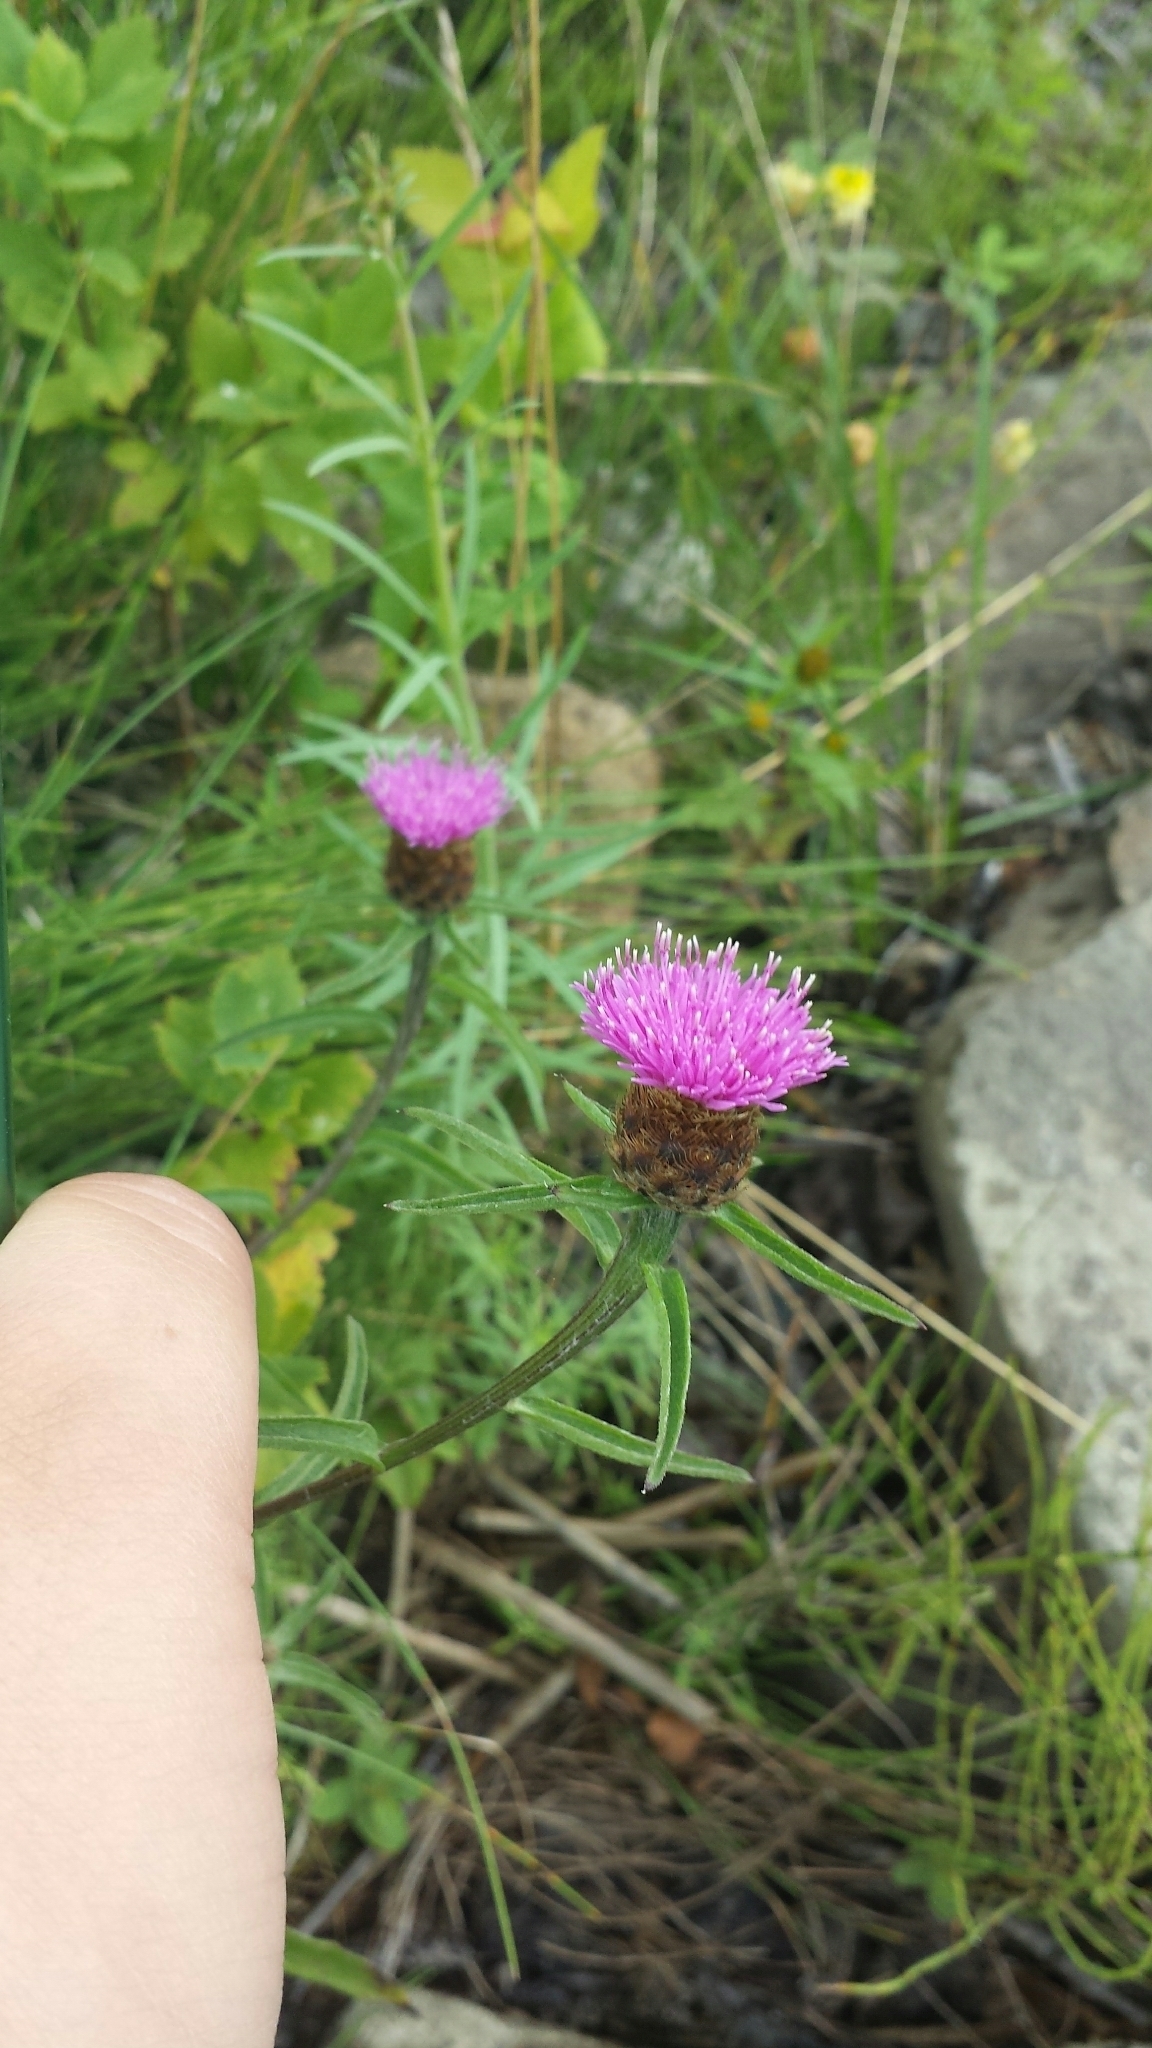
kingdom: Plantae
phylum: Tracheophyta
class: Magnoliopsida
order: Asterales
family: Asteraceae
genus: Centaurea
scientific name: Centaurea nigra
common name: Lesser knapweed
